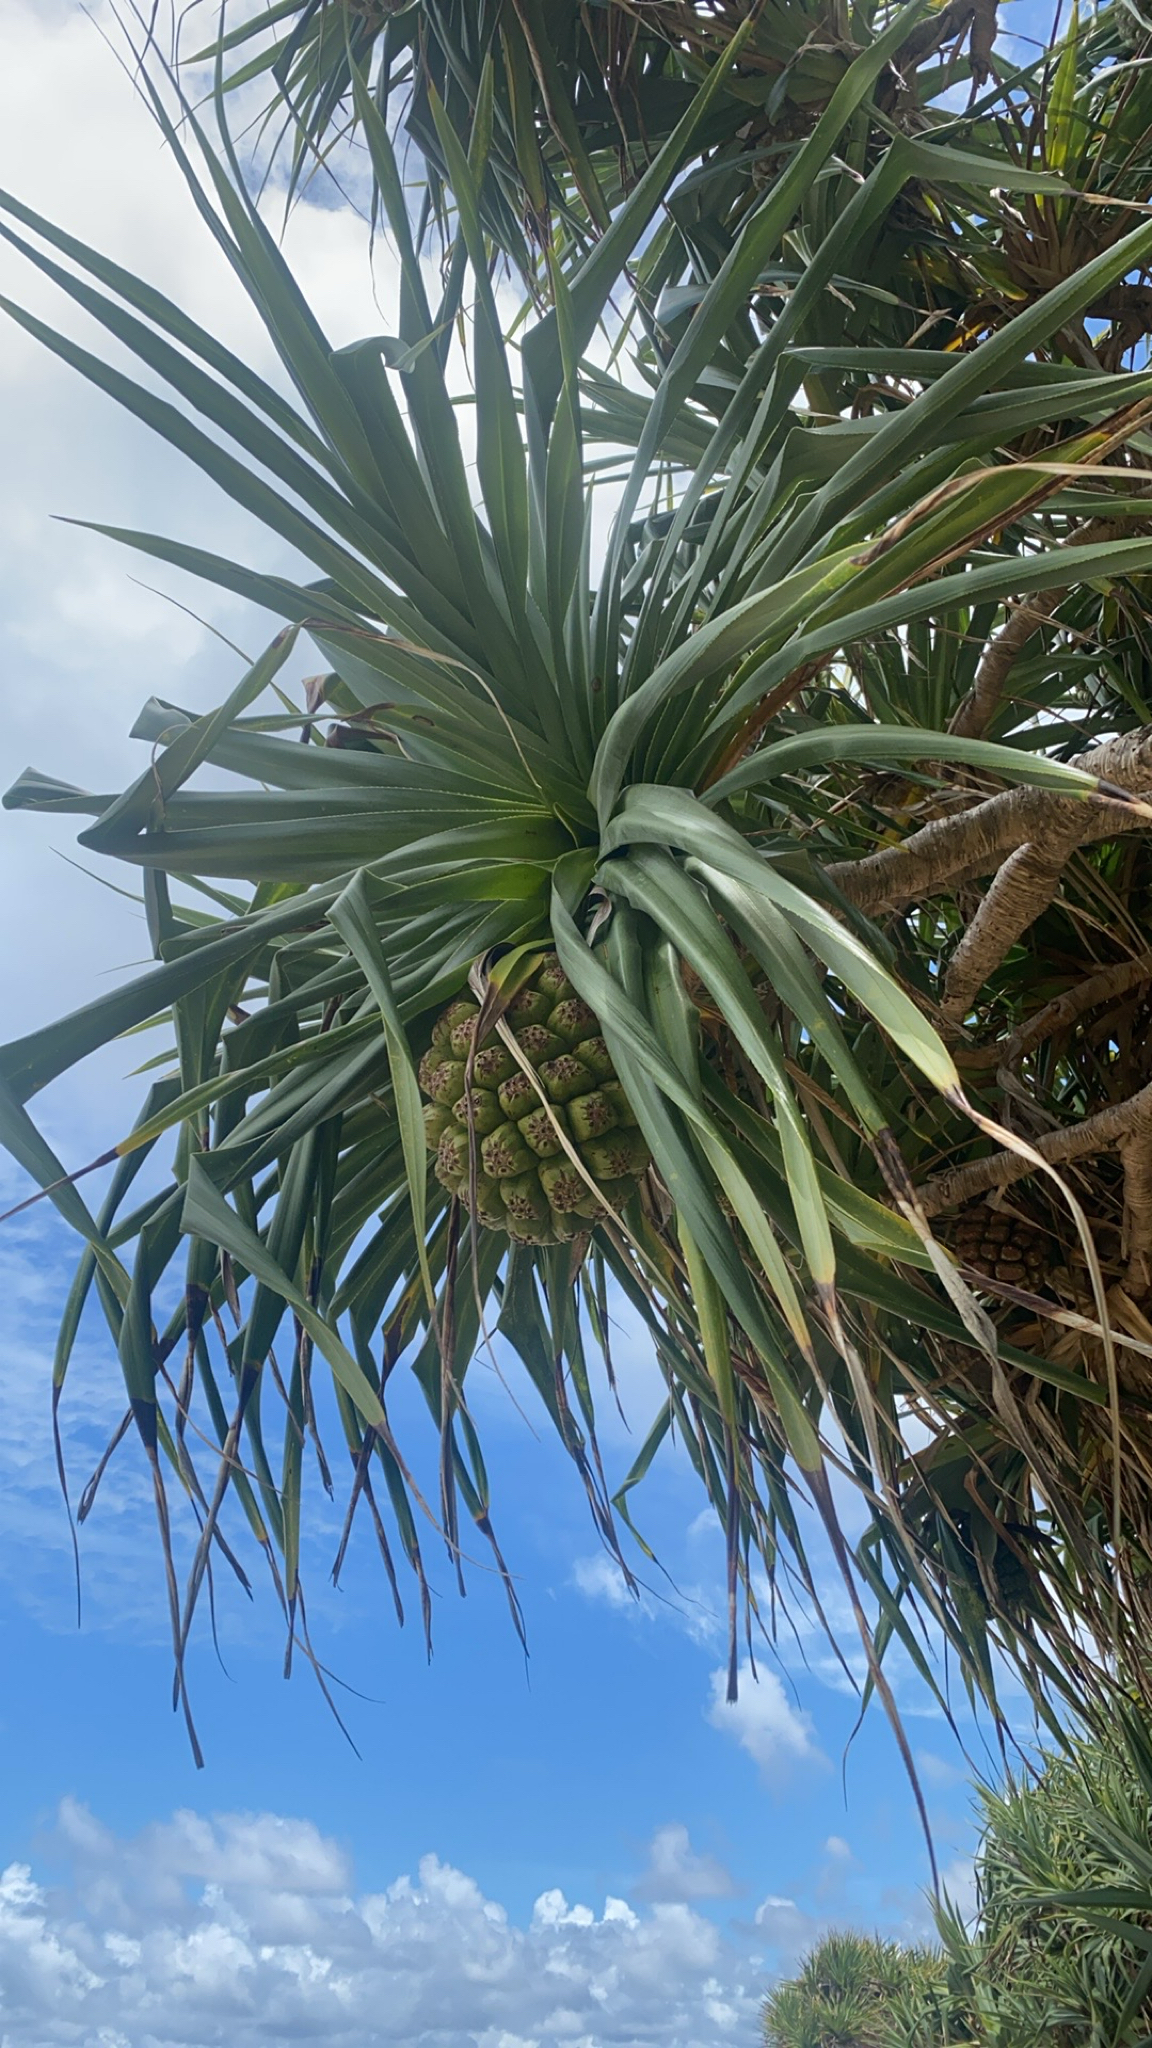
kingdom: Plantae
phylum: Tracheophyta
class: Liliopsida
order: Pandanales
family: Pandanaceae
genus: Pandanus
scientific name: Pandanus tectorius
